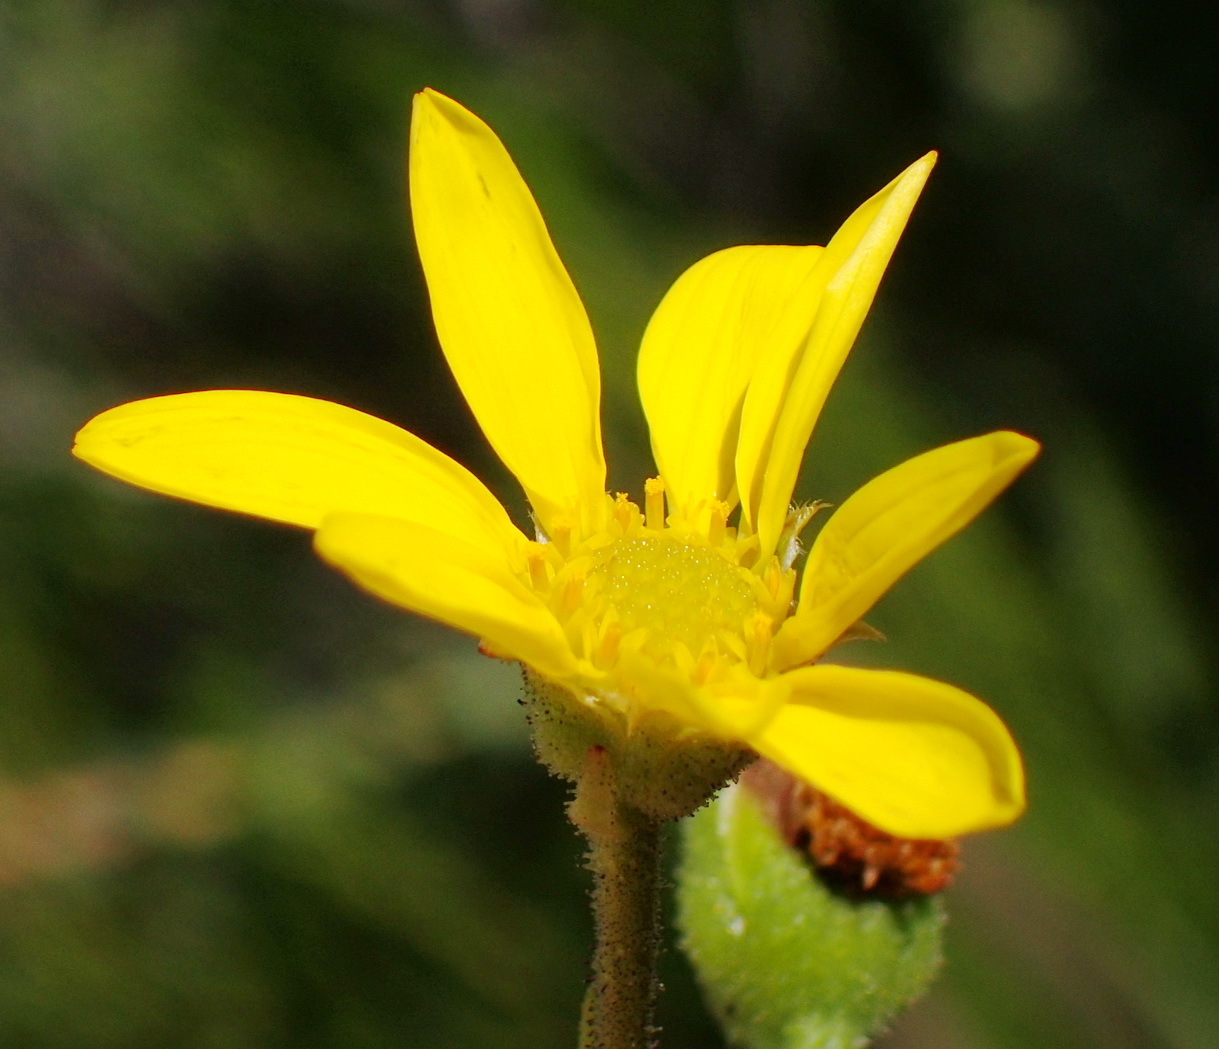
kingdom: Plantae
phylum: Tracheophyta
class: Magnoliopsida
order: Asterales
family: Asteraceae
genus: Osteospermum
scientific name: Osteospermum corymbosum
